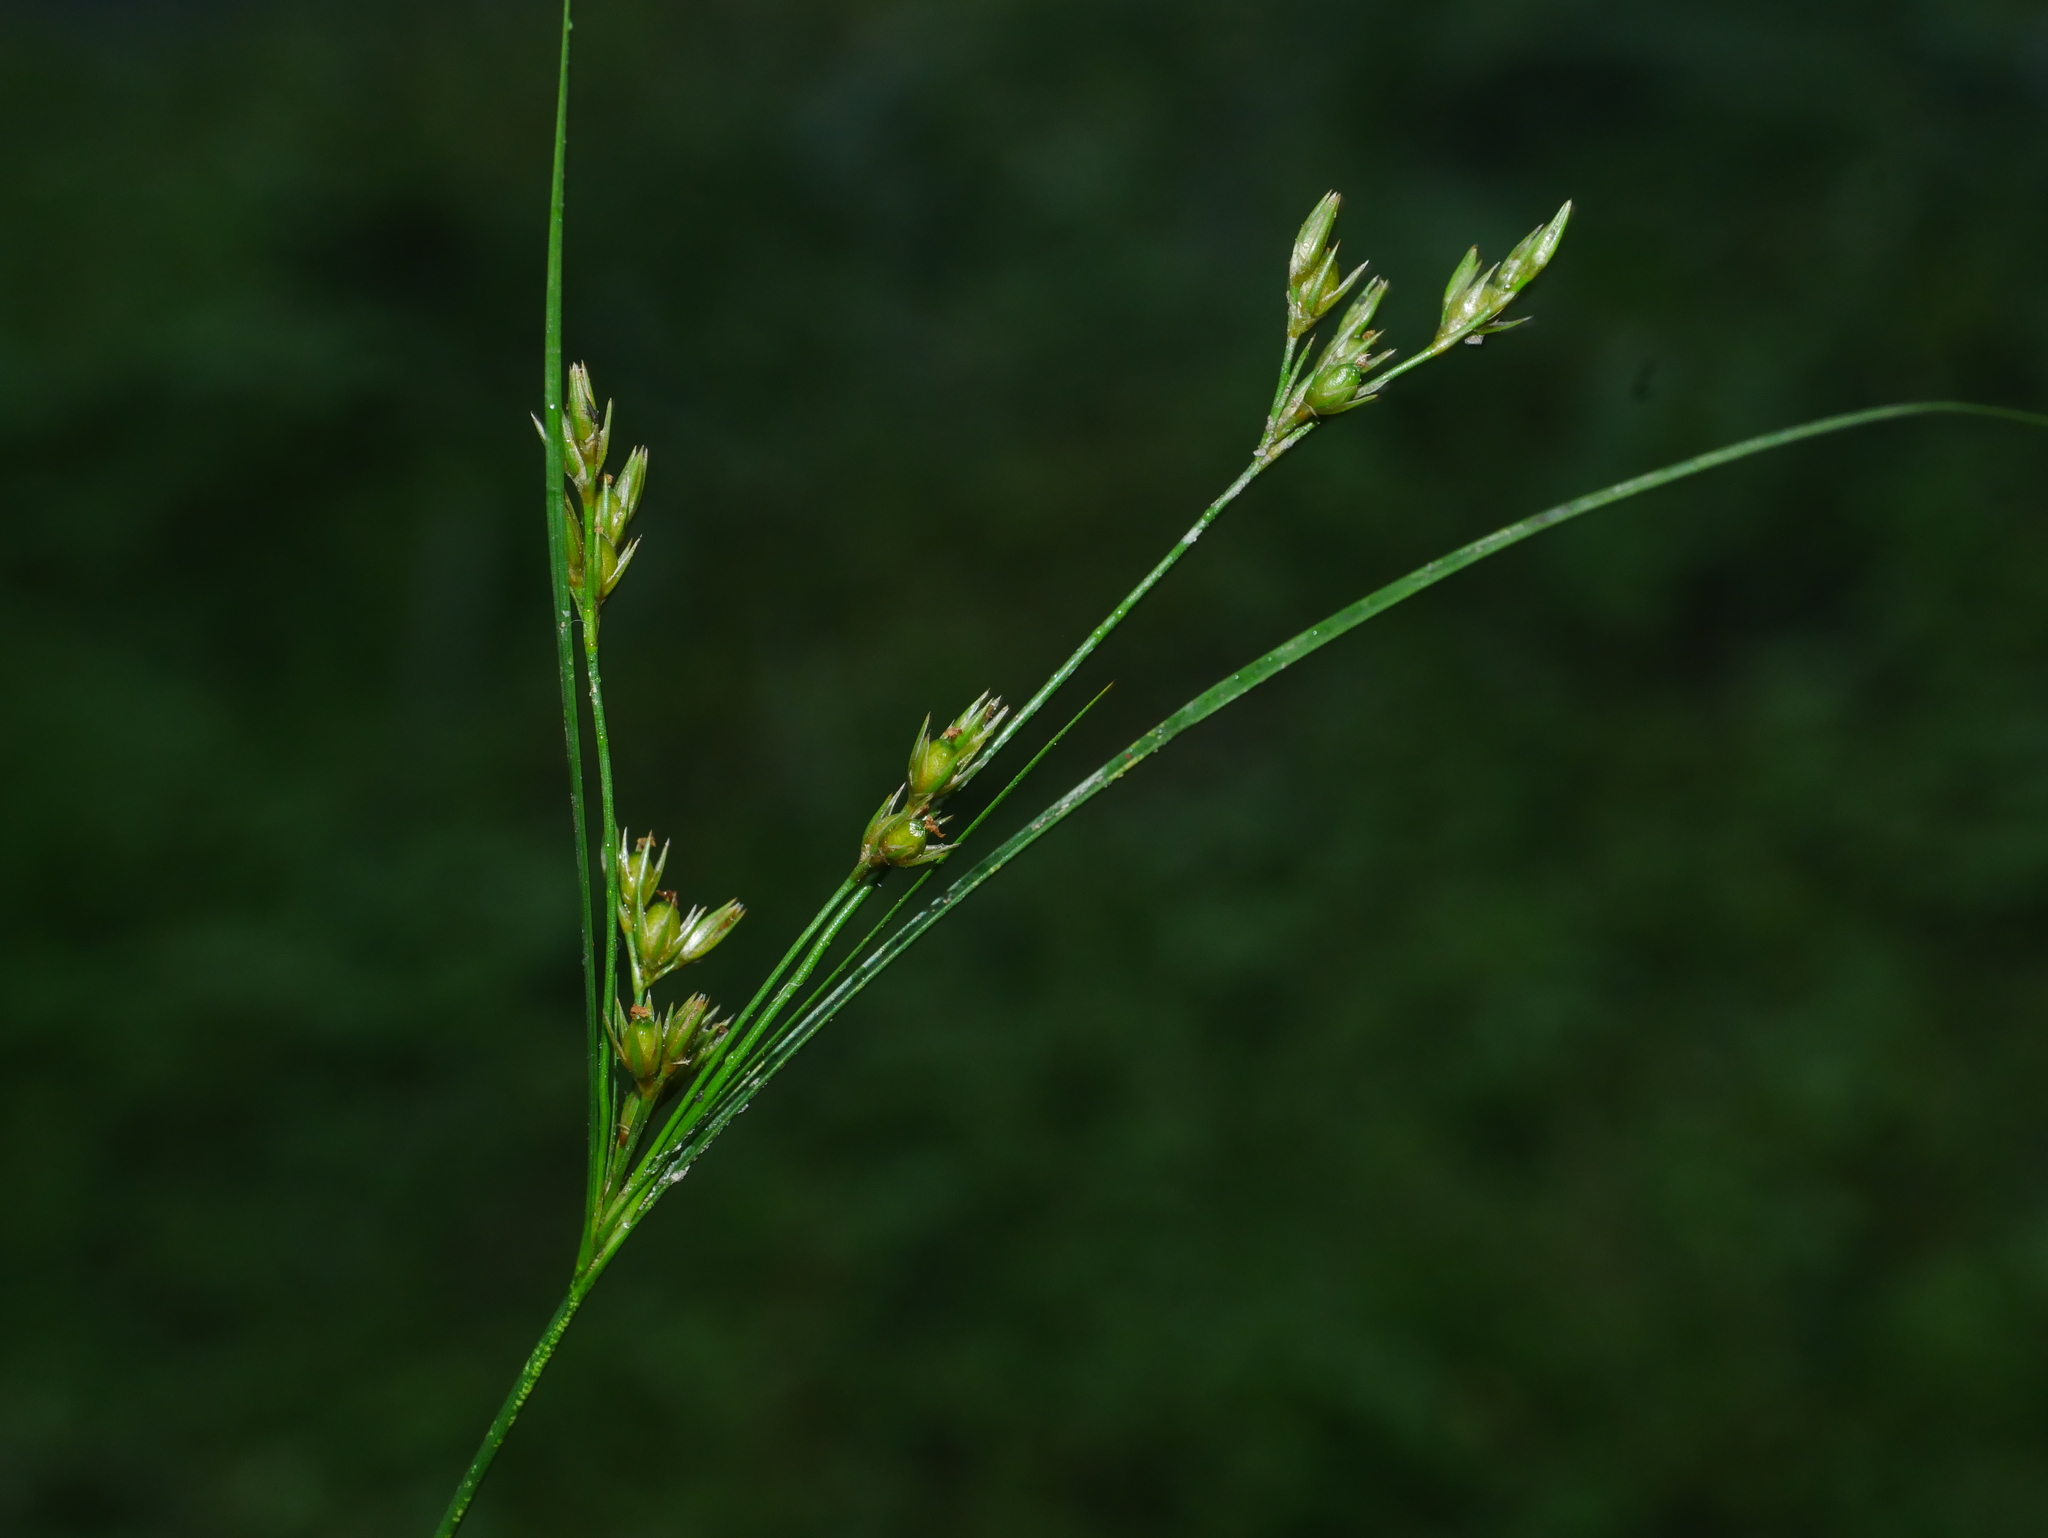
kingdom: Plantae
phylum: Tracheophyta
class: Liliopsida
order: Poales
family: Juncaceae
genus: Juncus
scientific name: Juncus tenuis
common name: Slender rush
